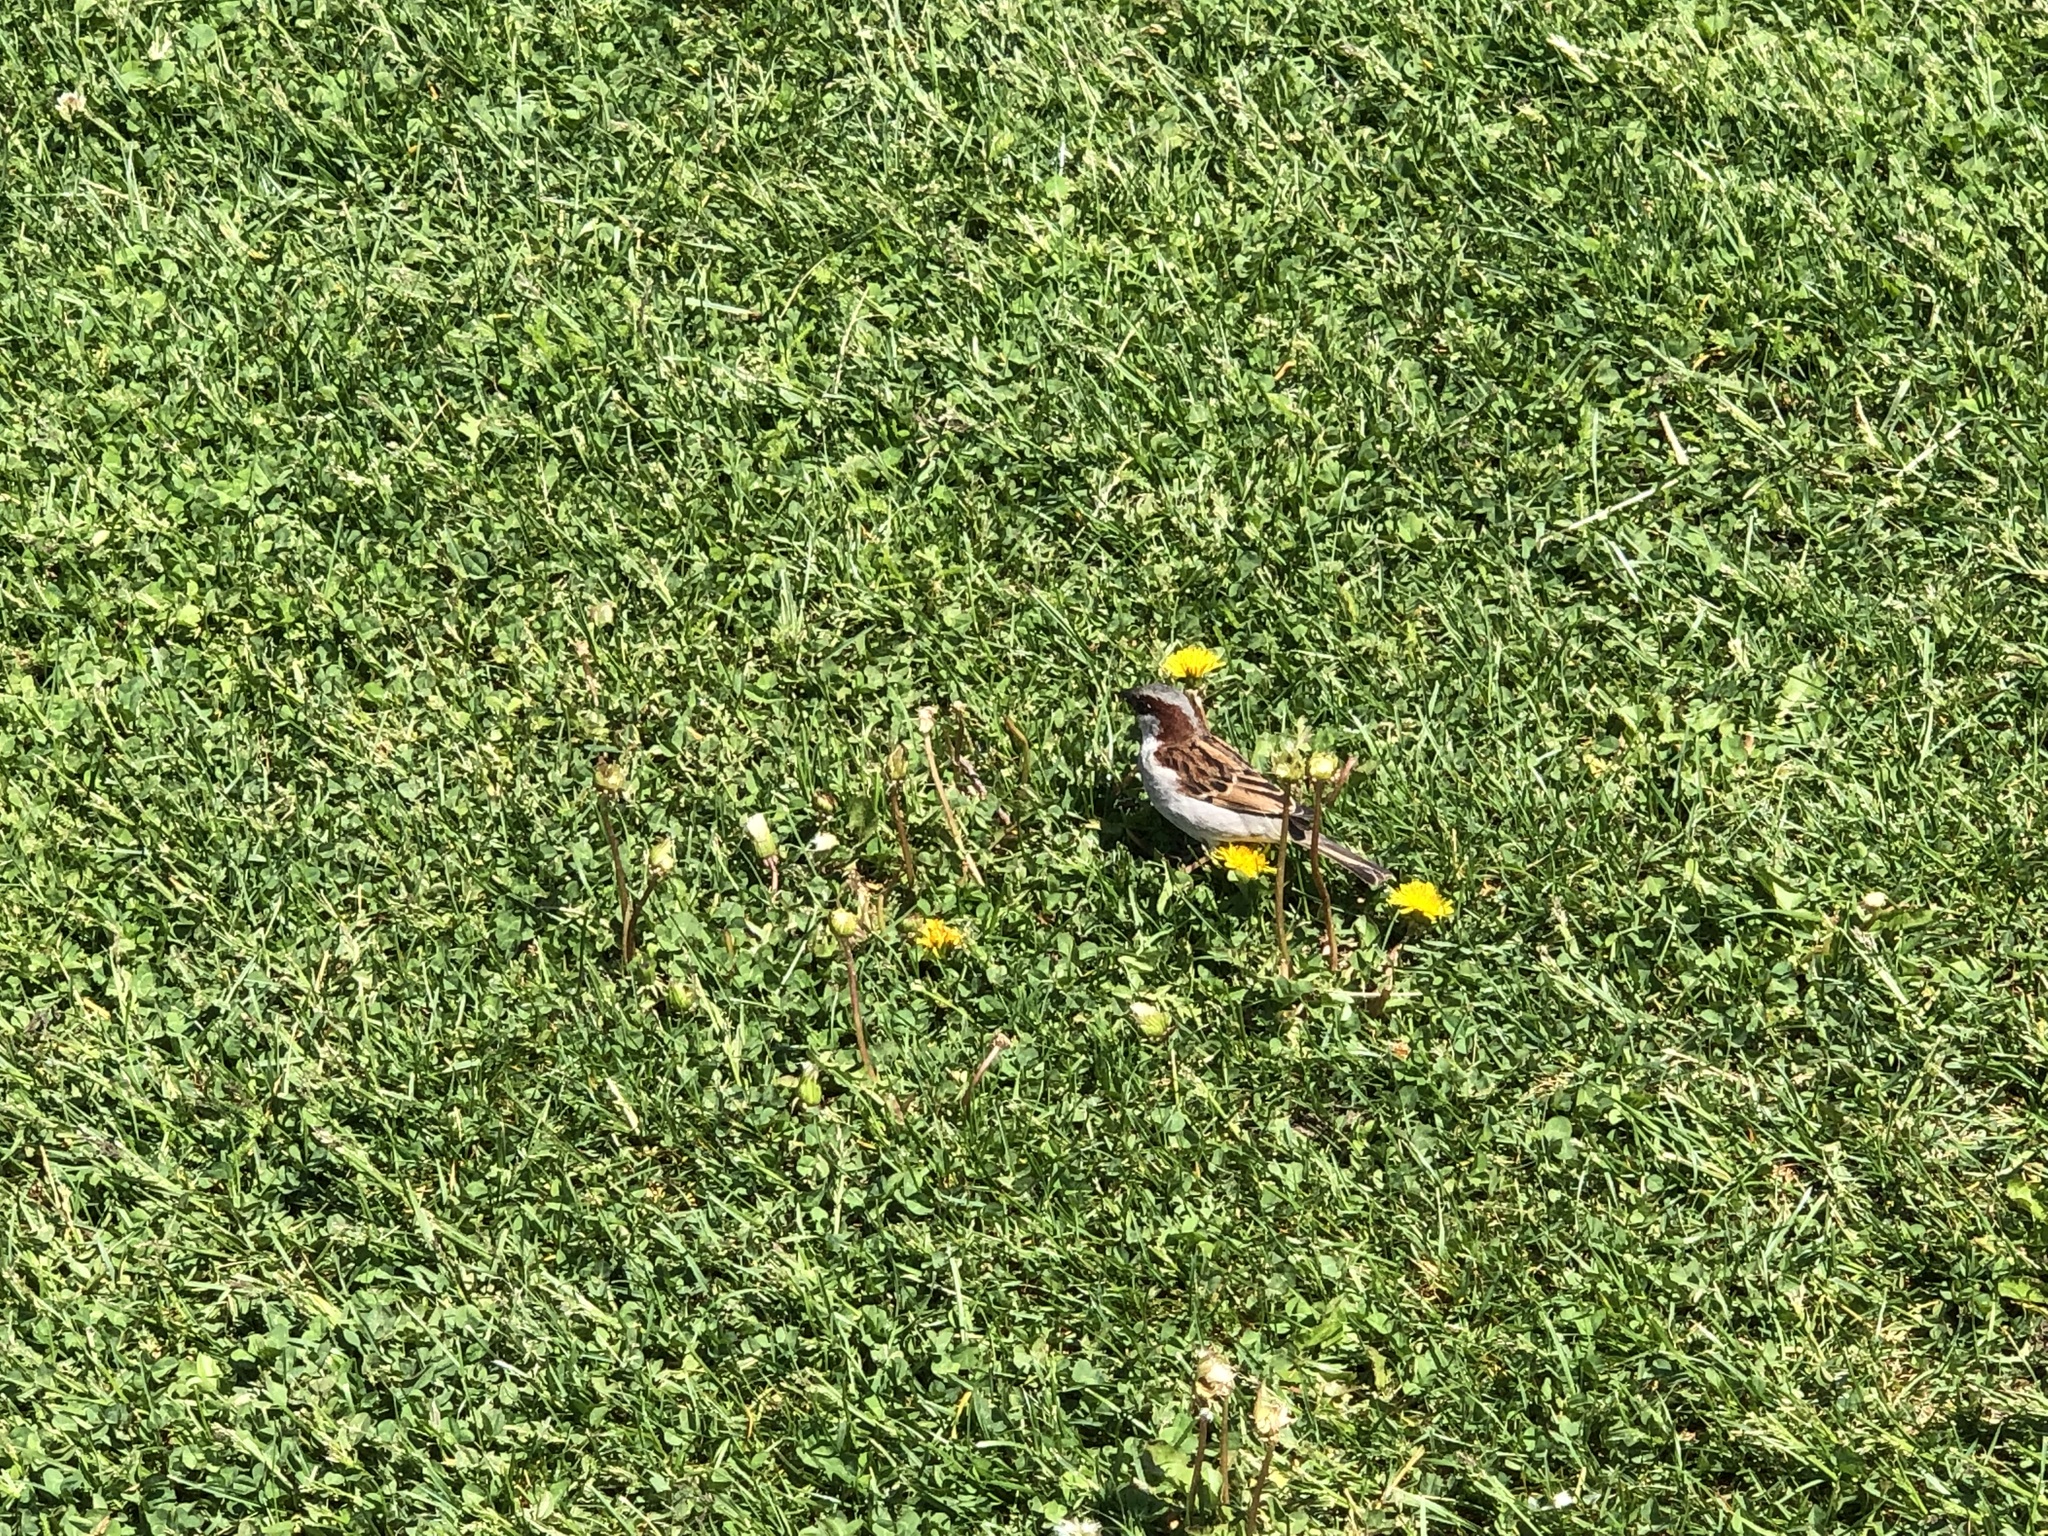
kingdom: Animalia
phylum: Chordata
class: Aves
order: Passeriformes
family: Passeridae
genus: Passer
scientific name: Passer domesticus
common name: House sparrow
